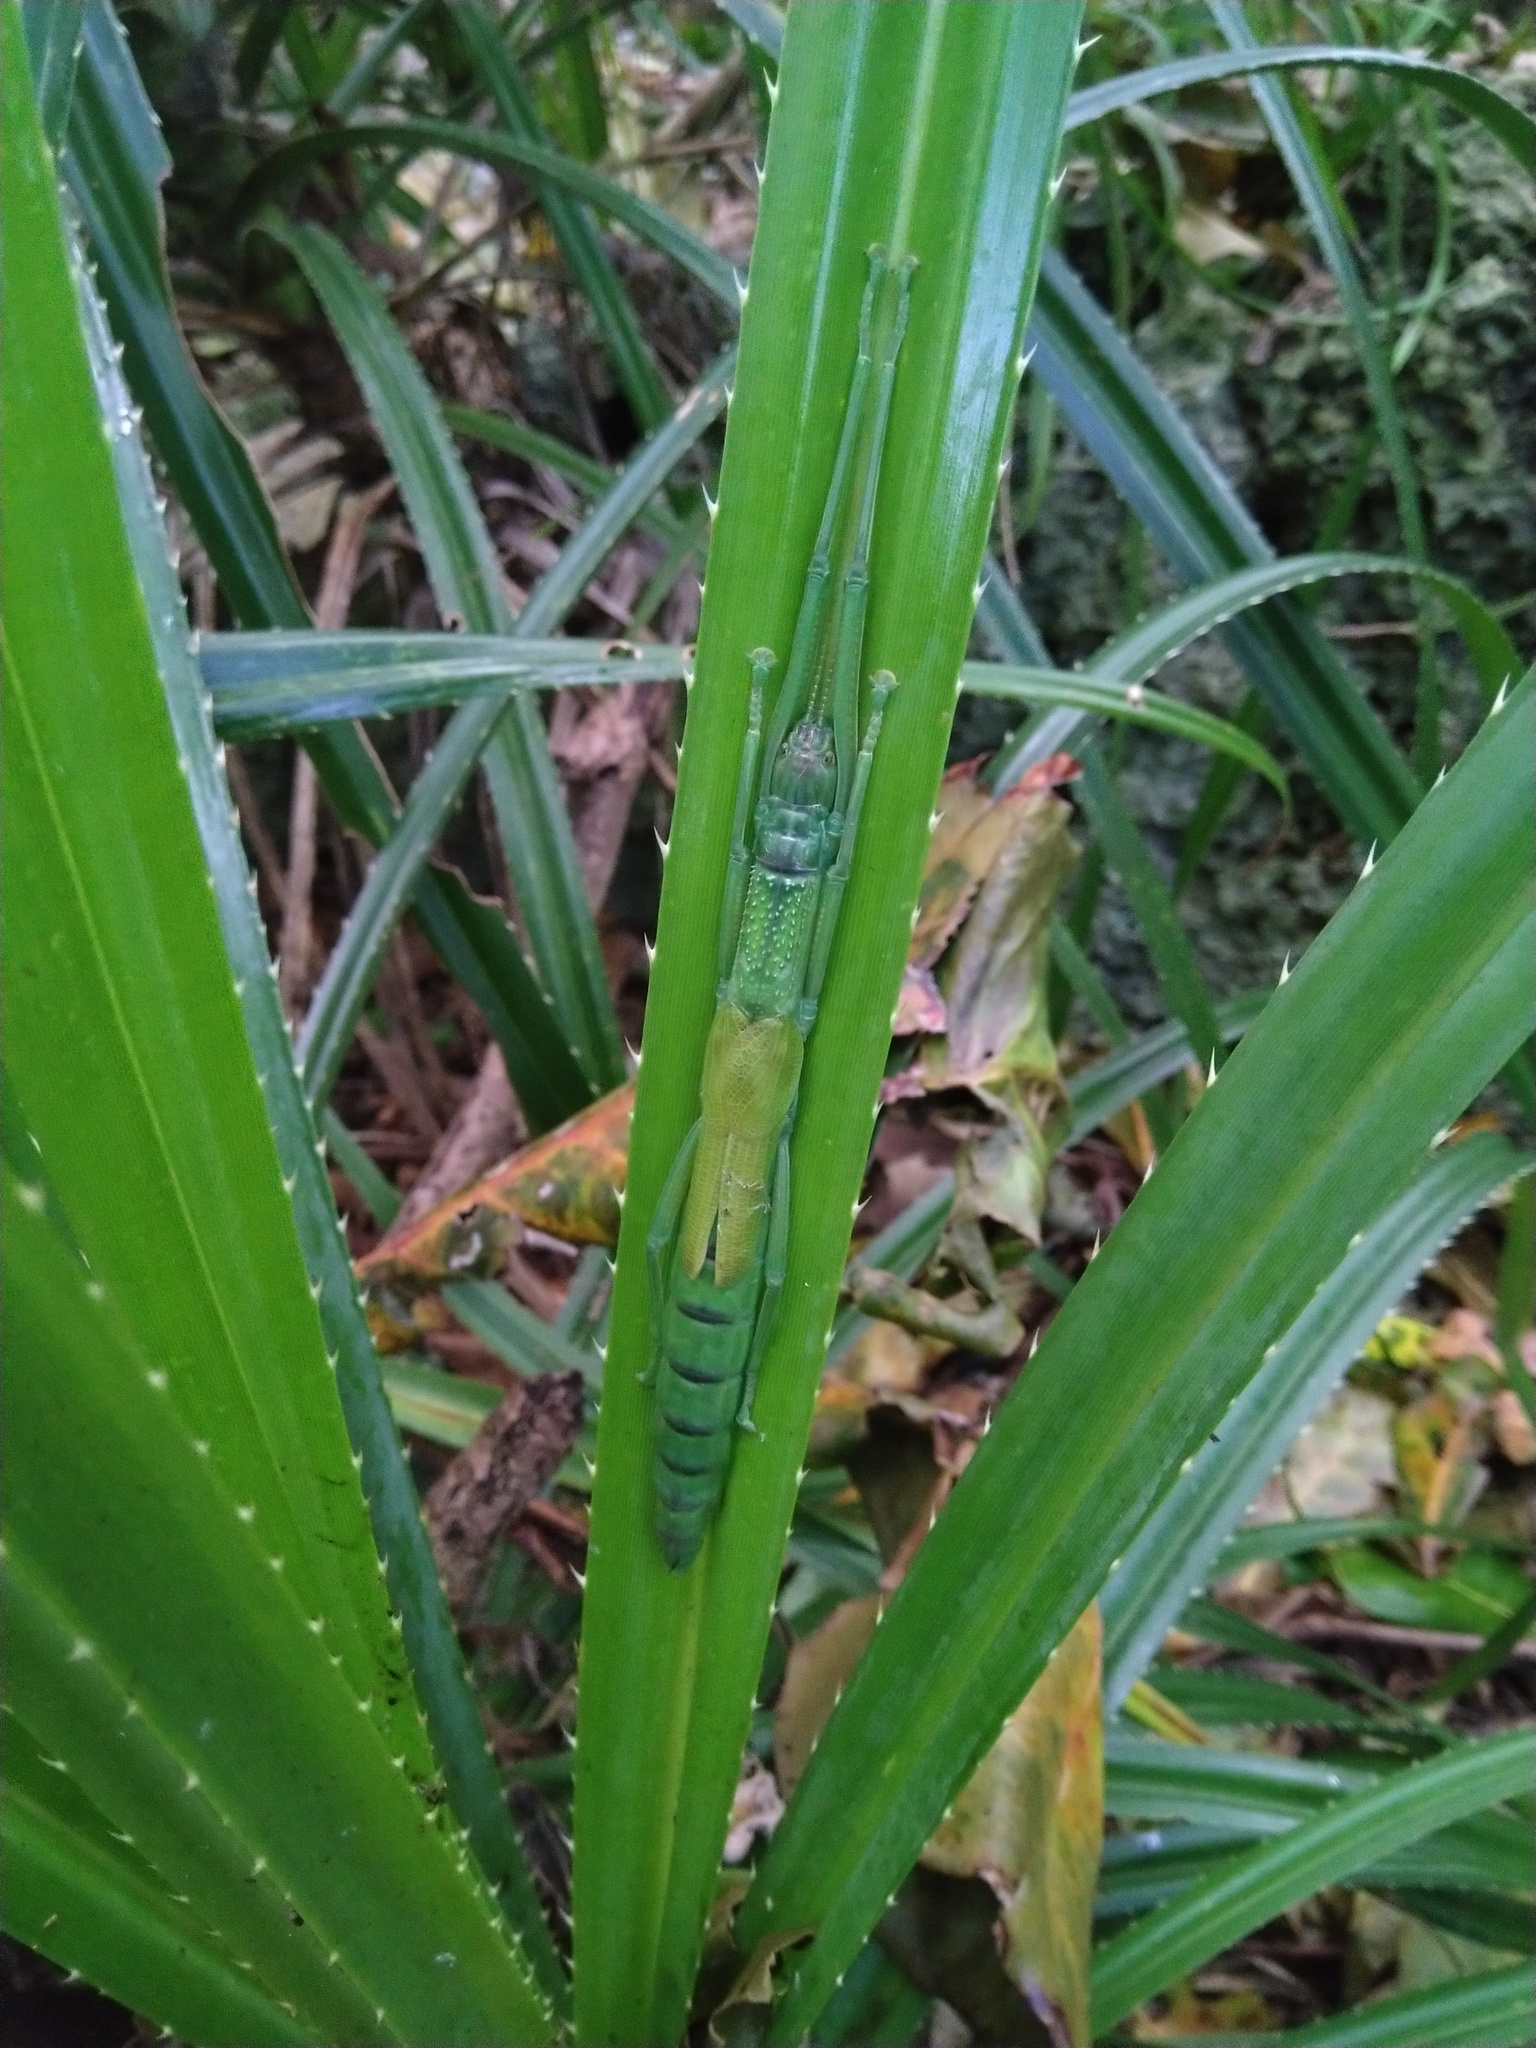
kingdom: Animalia
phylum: Arthropoda
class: Insecta
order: Phasmida
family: Phasmatidae
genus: Megacrania
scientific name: Megacrania tsudai
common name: Tsuda's giant stick-insect
